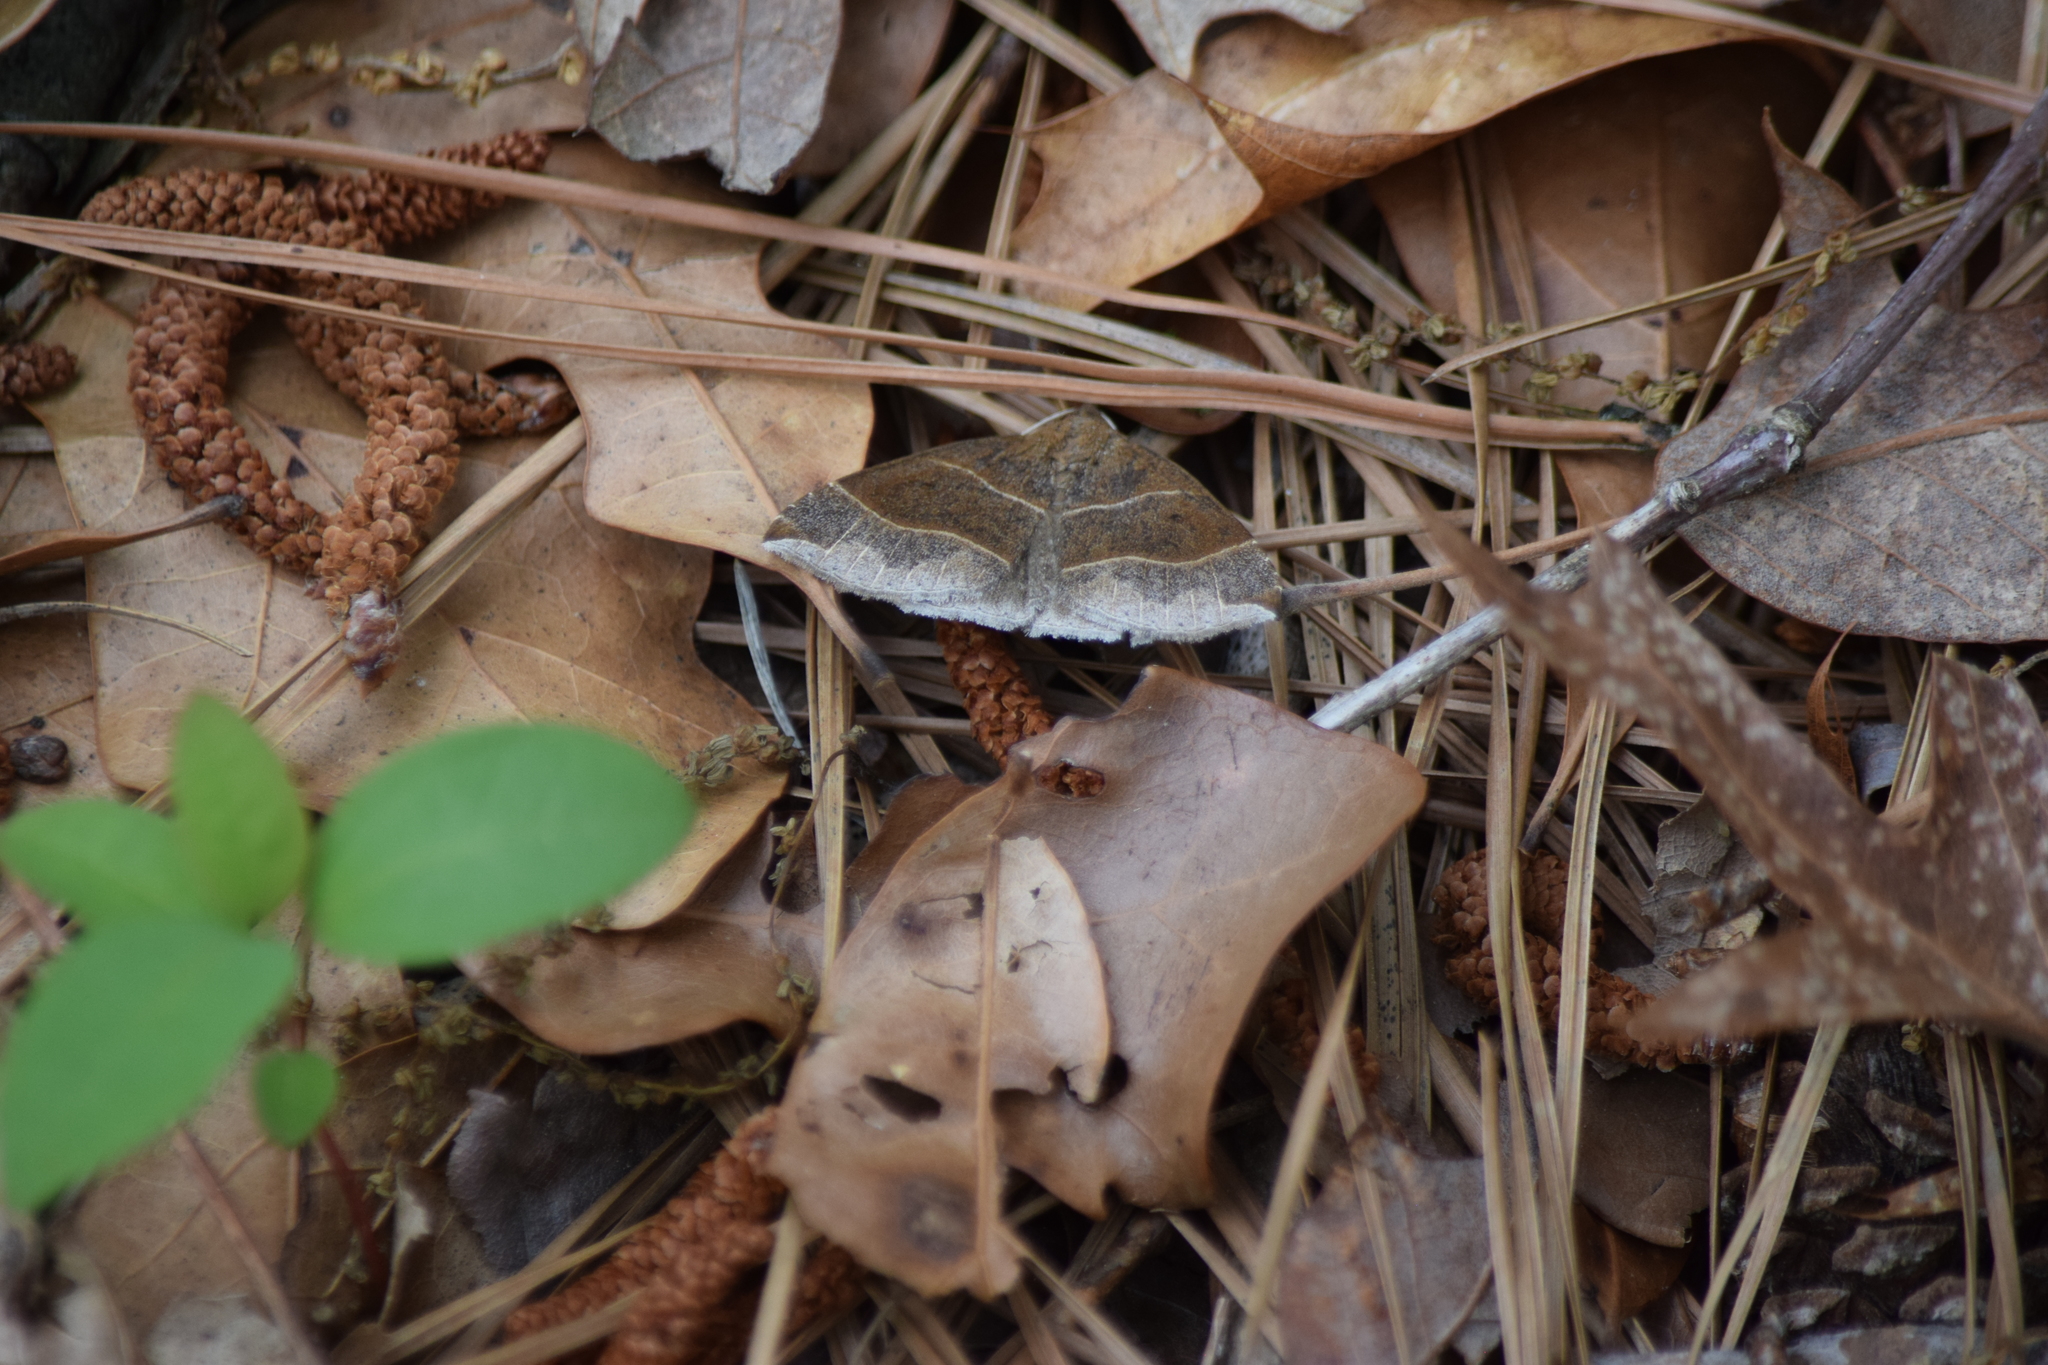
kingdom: Animalia
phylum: Arthropoda
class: Insecta
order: Lepidoptera
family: Erebidae
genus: Parallelia
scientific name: Parallelia bistriaris
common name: Maple looper moth
